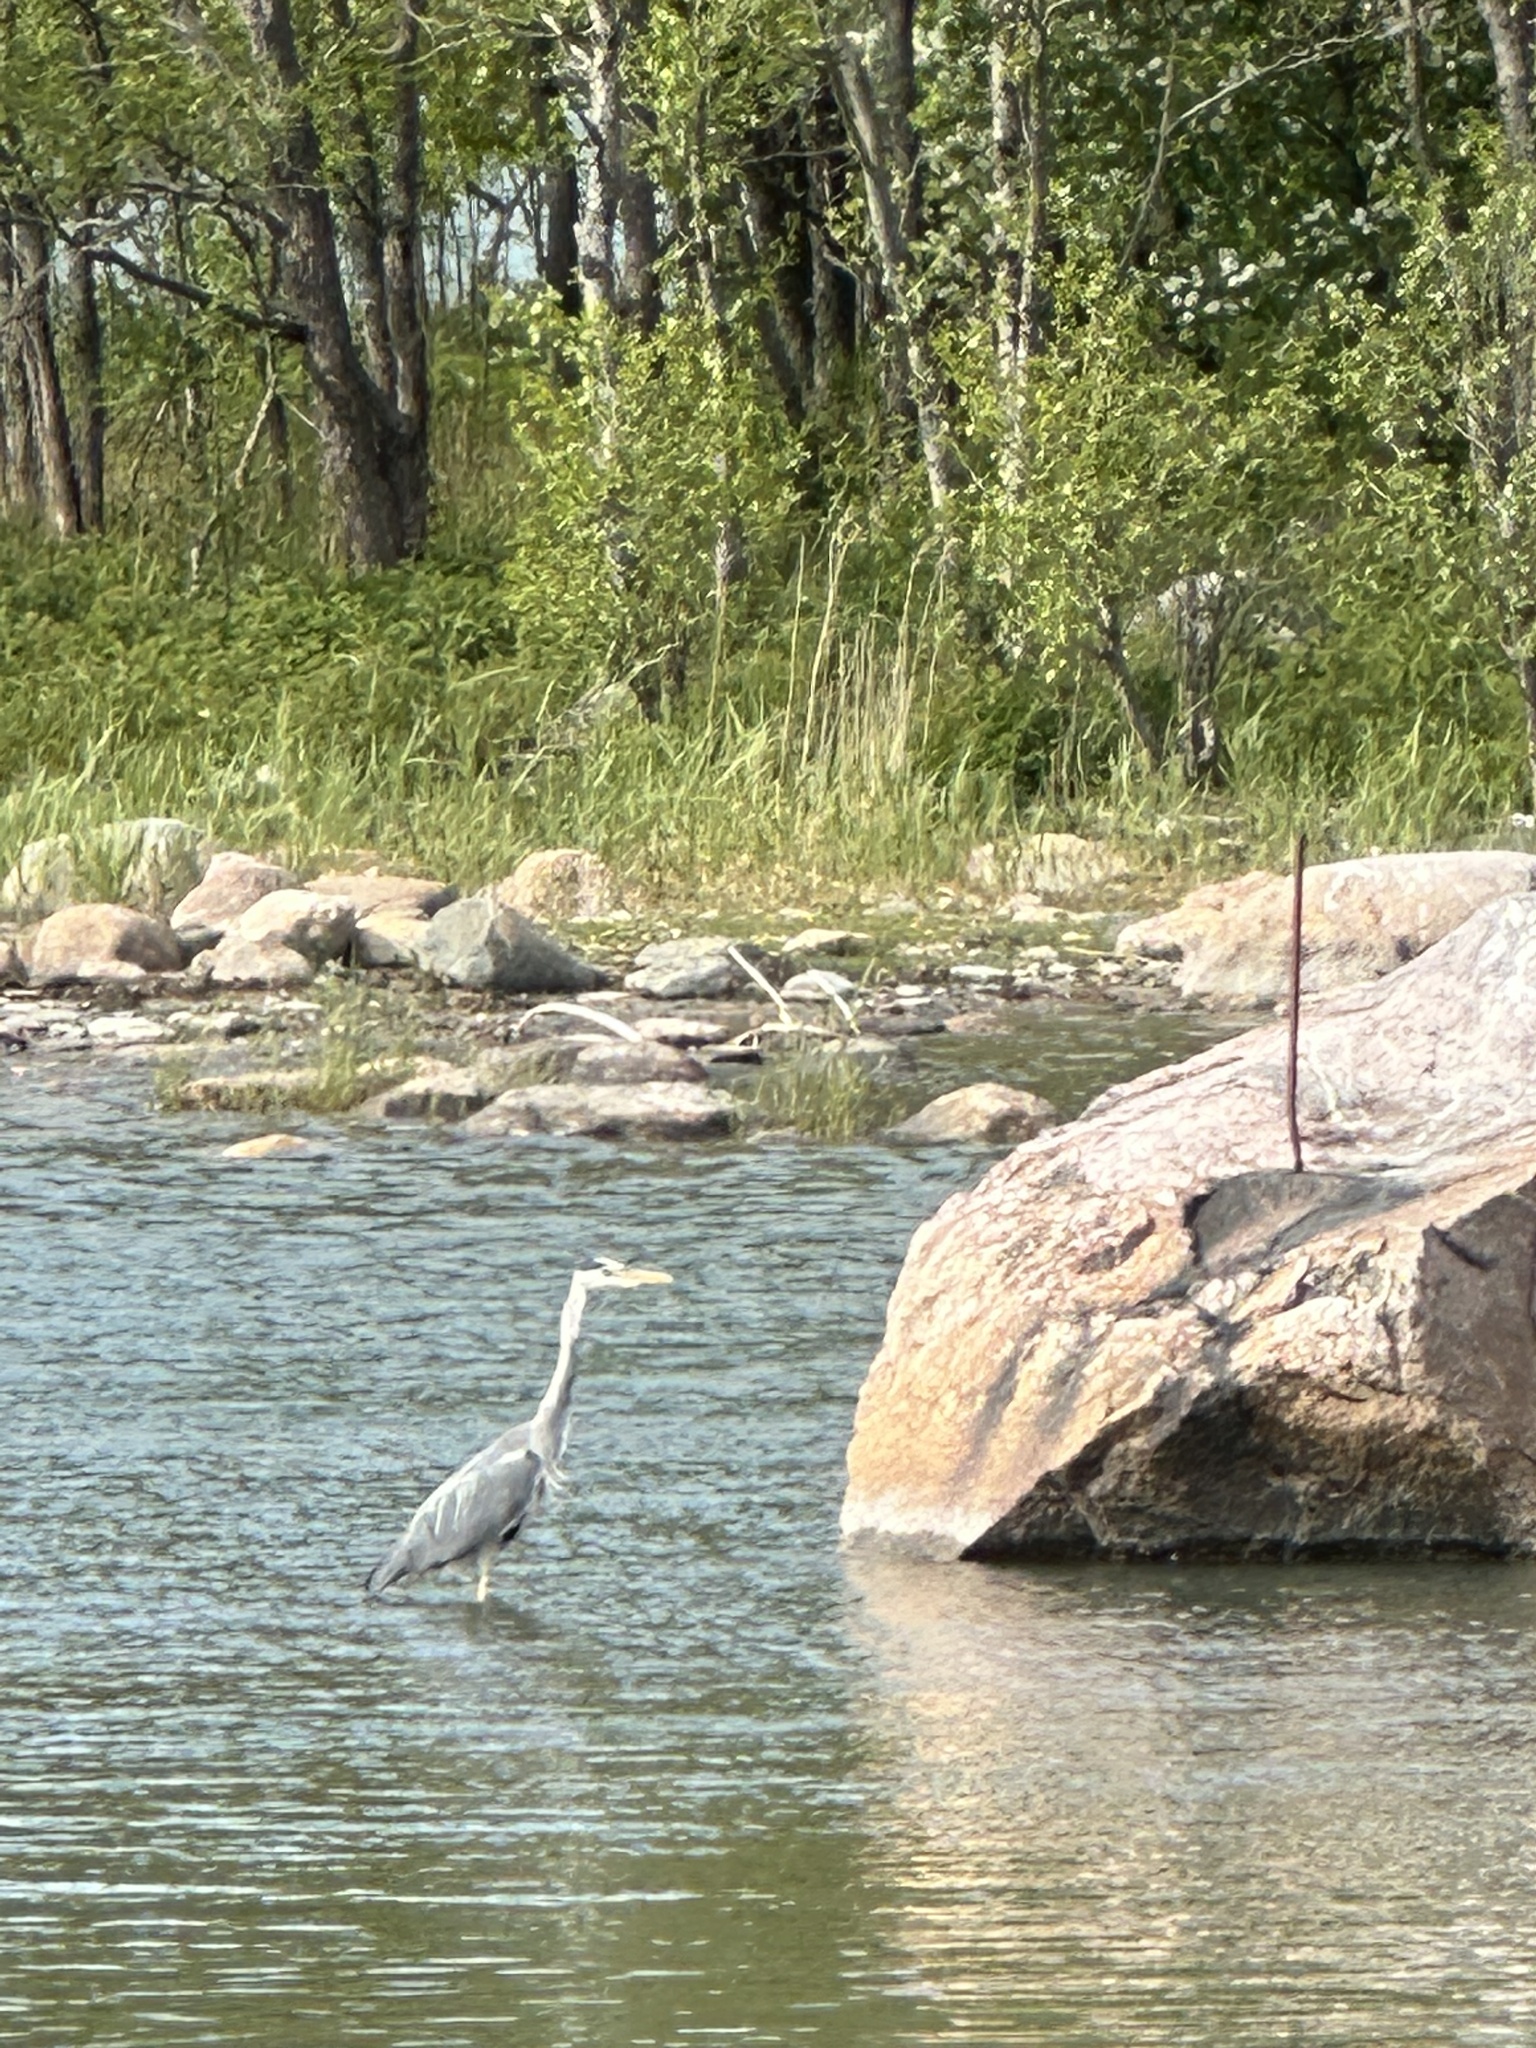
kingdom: Animalia
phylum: Chordata
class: Aves
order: Pelecaniformes
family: Ardeidae
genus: Ardea
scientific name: Ardea cinerea
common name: Grey heron
